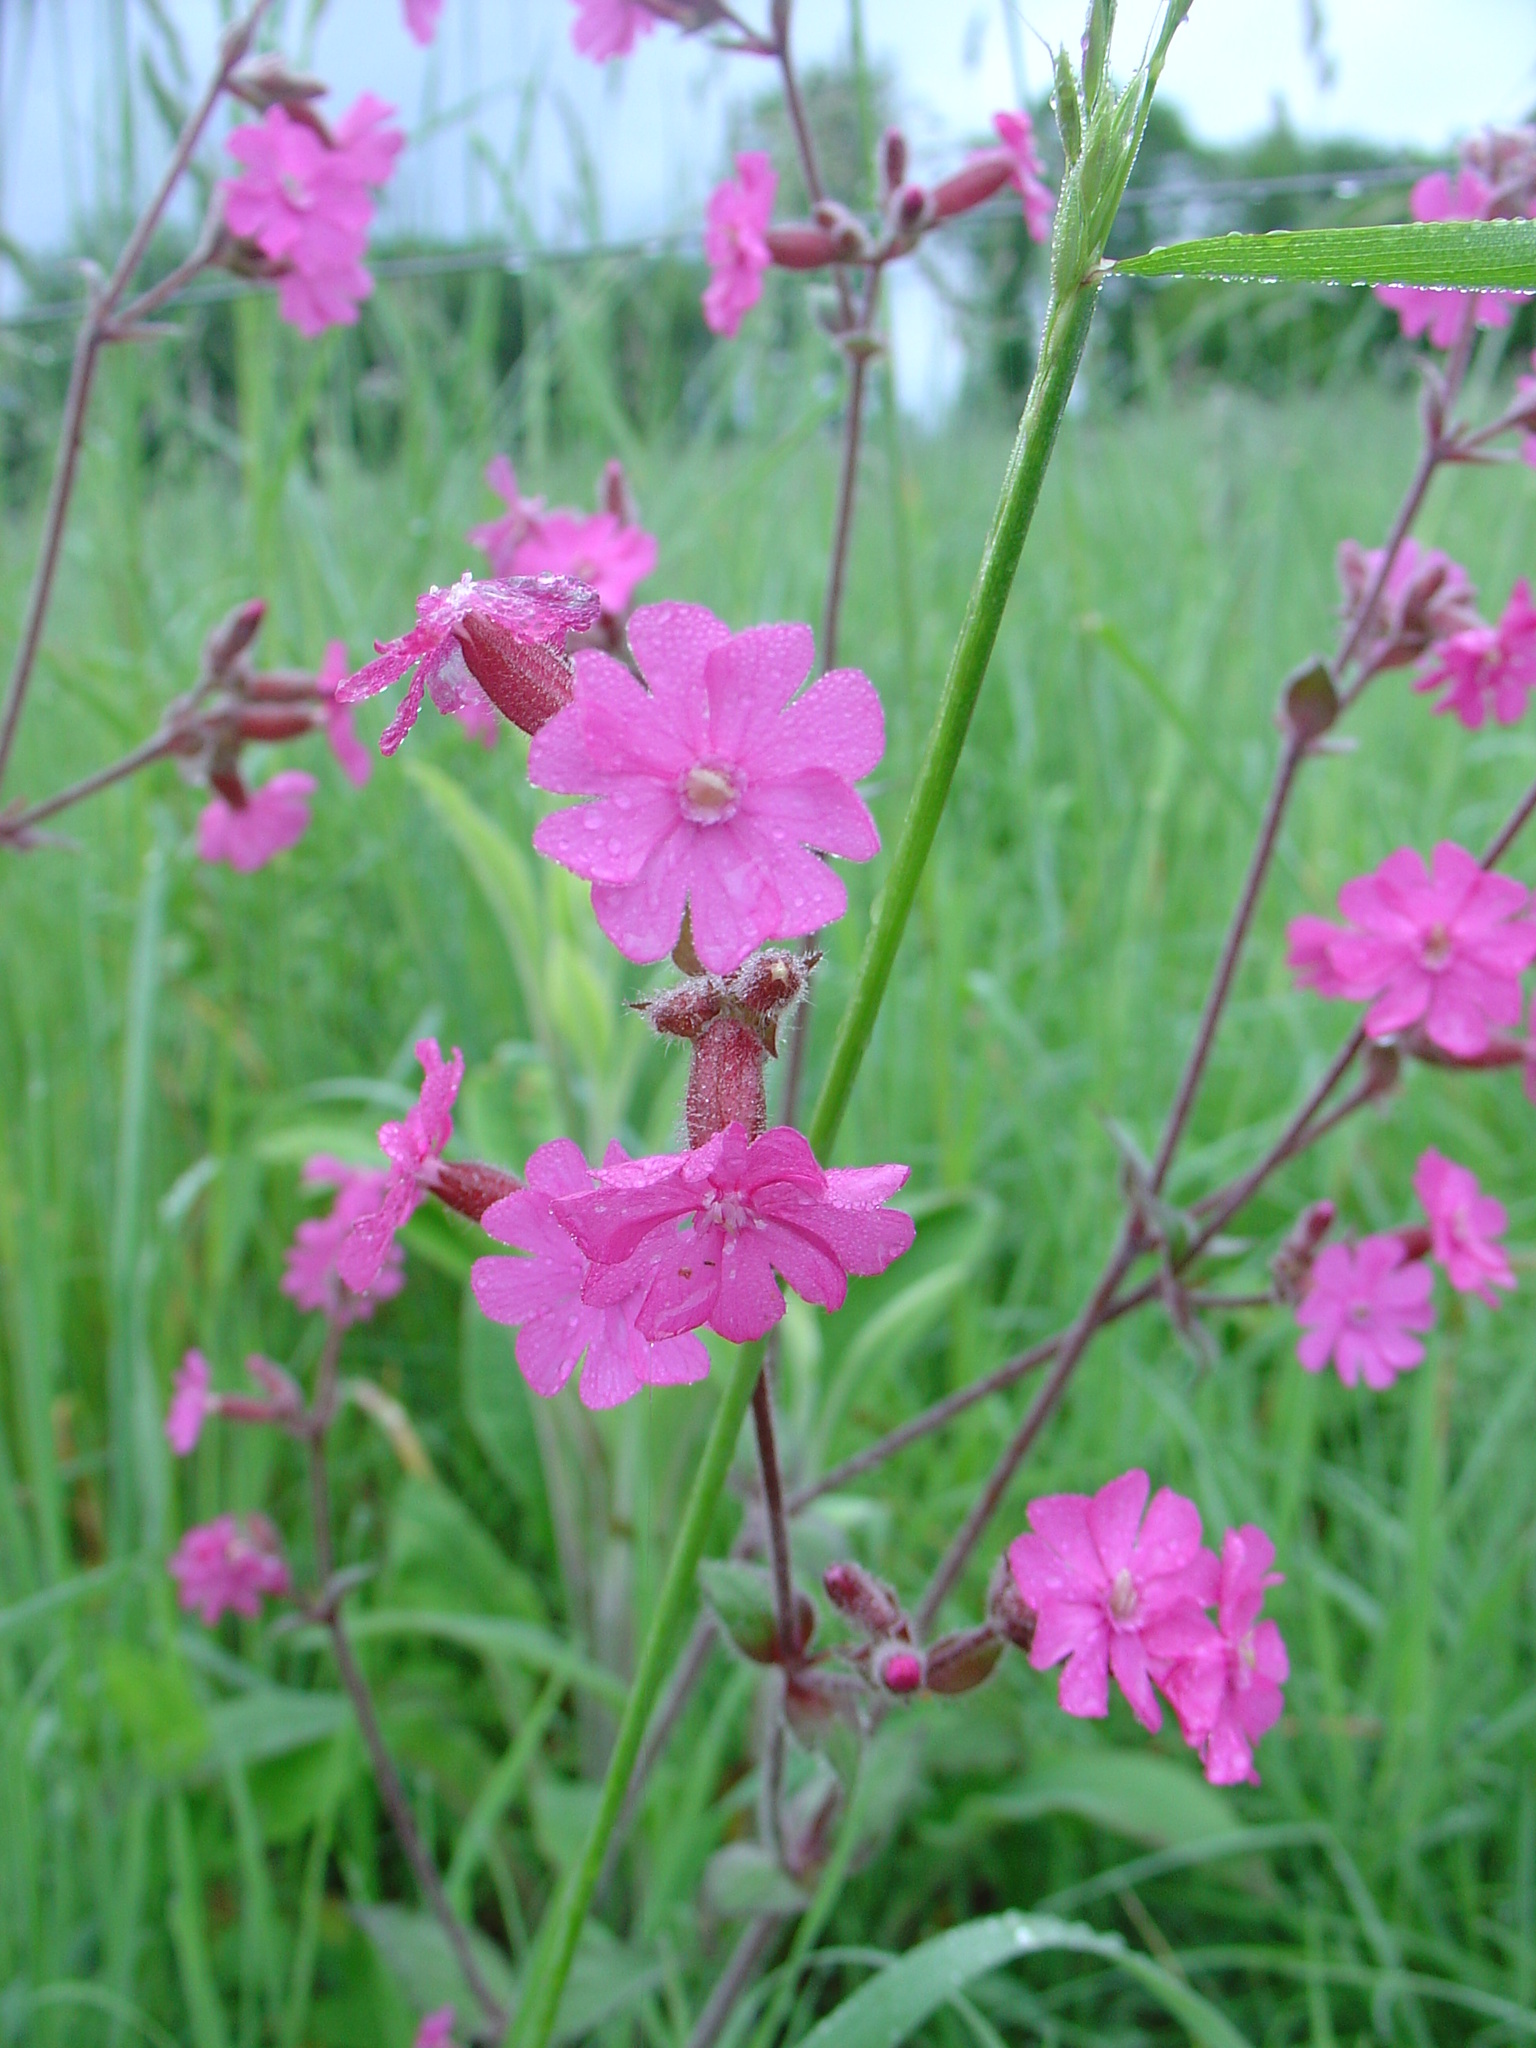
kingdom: Plantae
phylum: Tracheophyta
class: Magnoliopsida
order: Caryophyllales
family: Caryophyllaceae
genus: Silene
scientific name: Silene dioica
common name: Red campion
